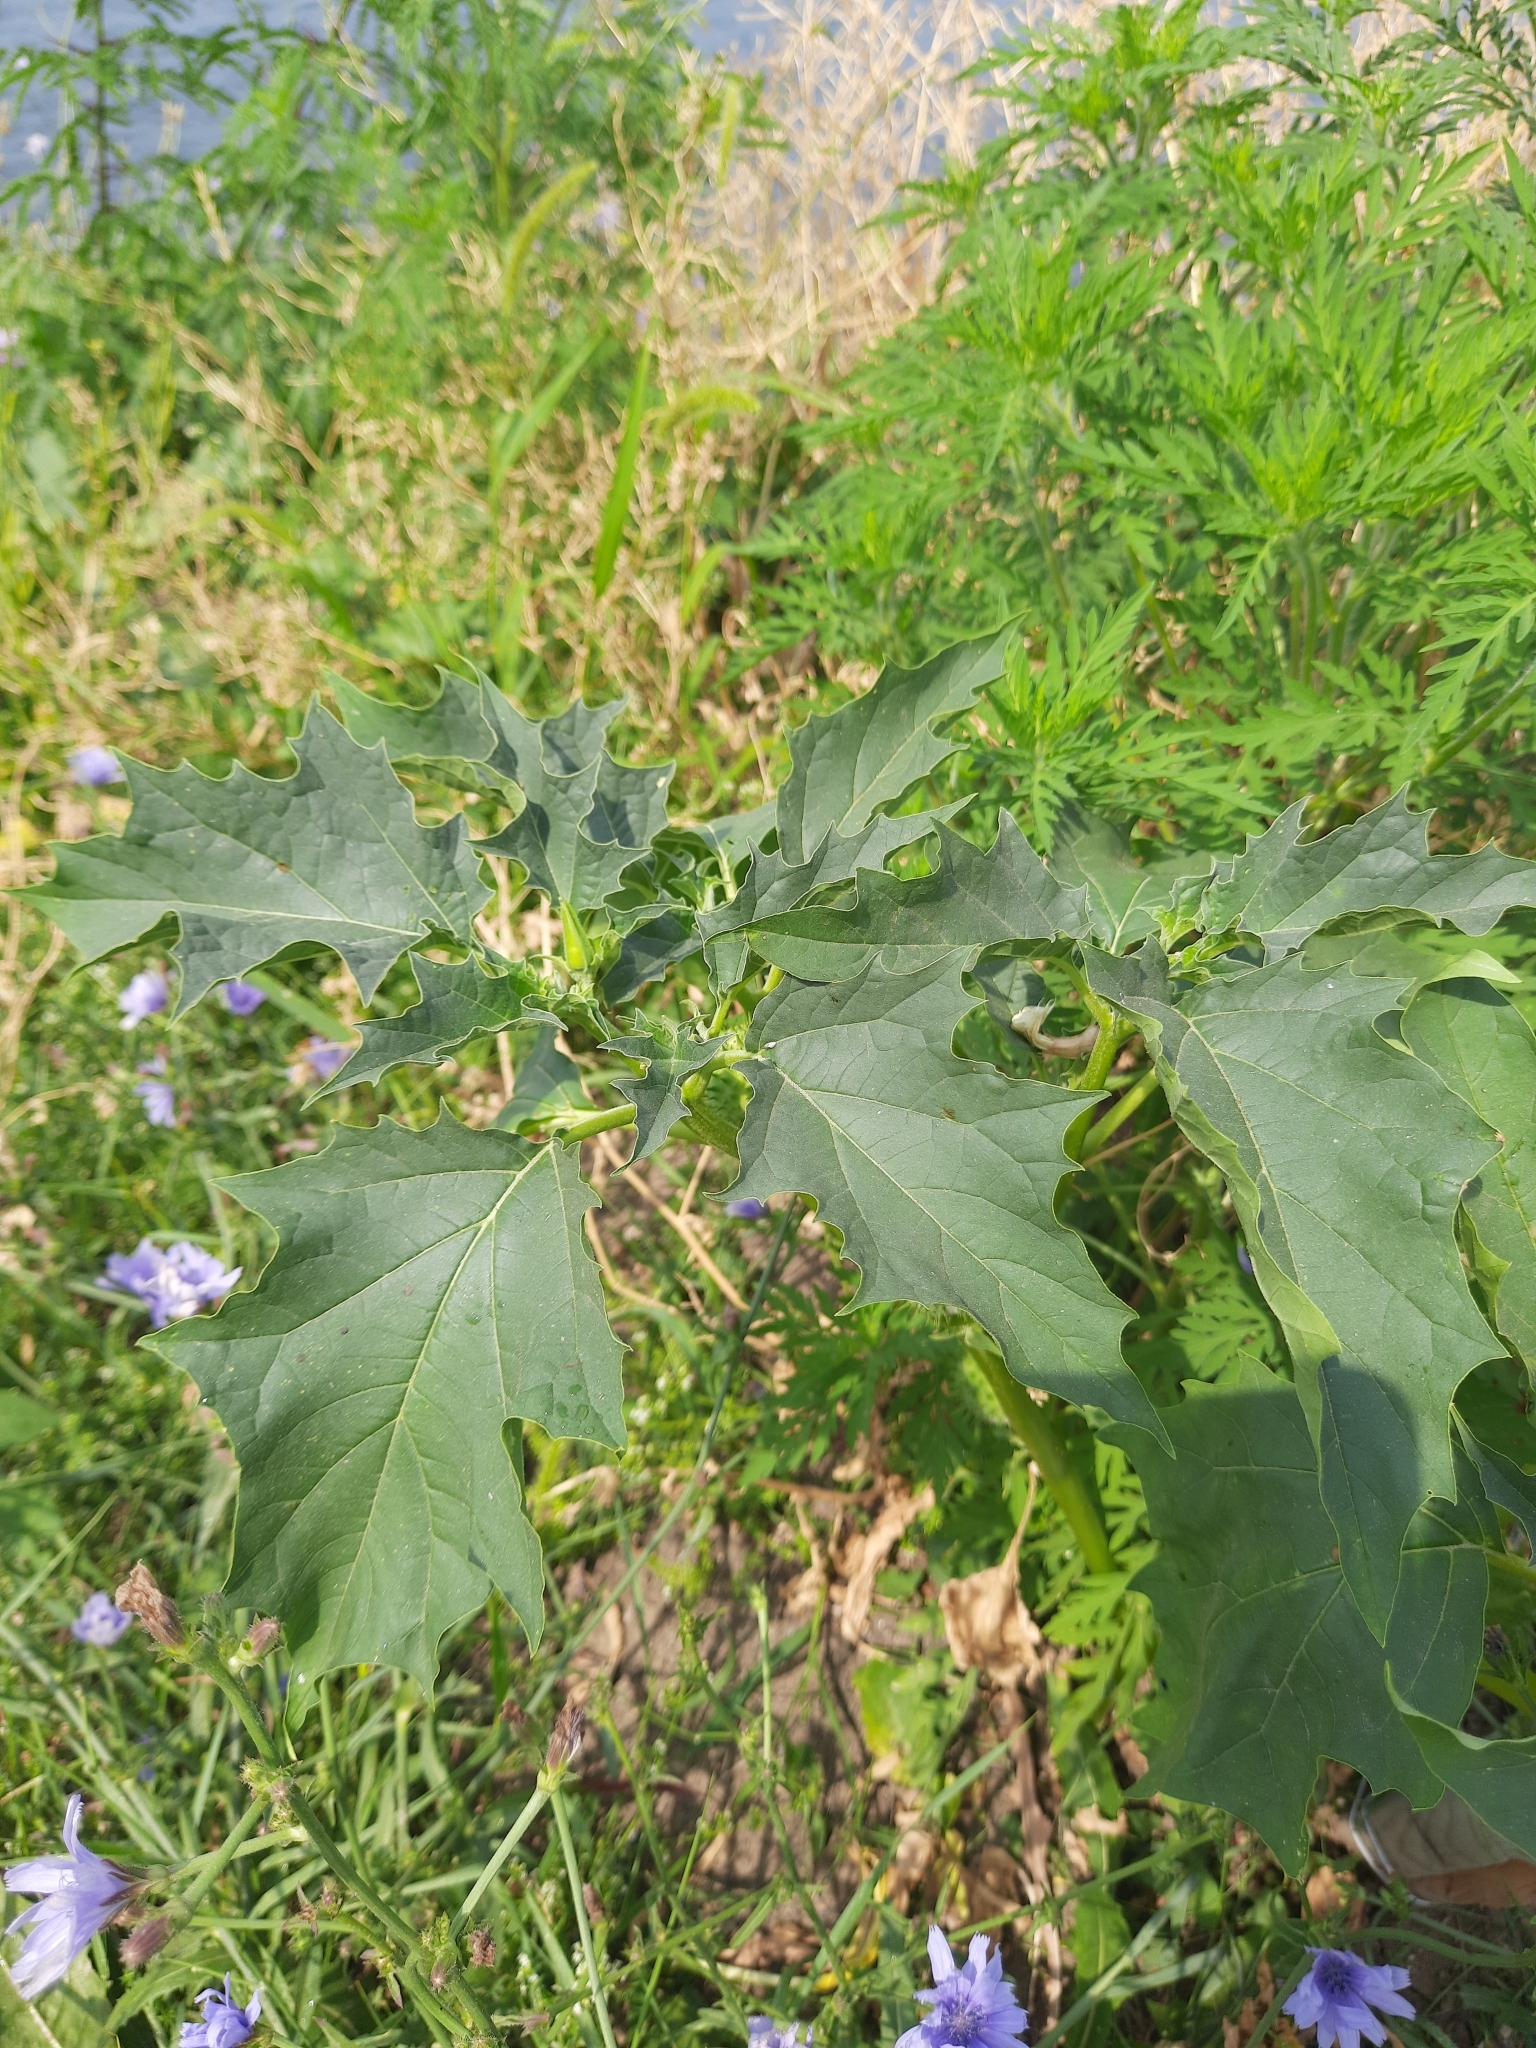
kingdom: Plantae
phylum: Tracheophyta
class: Magnoliopsida
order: Solanales
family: Solanaceae
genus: Datura
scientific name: Datura stramonium
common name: Thorn-apple
